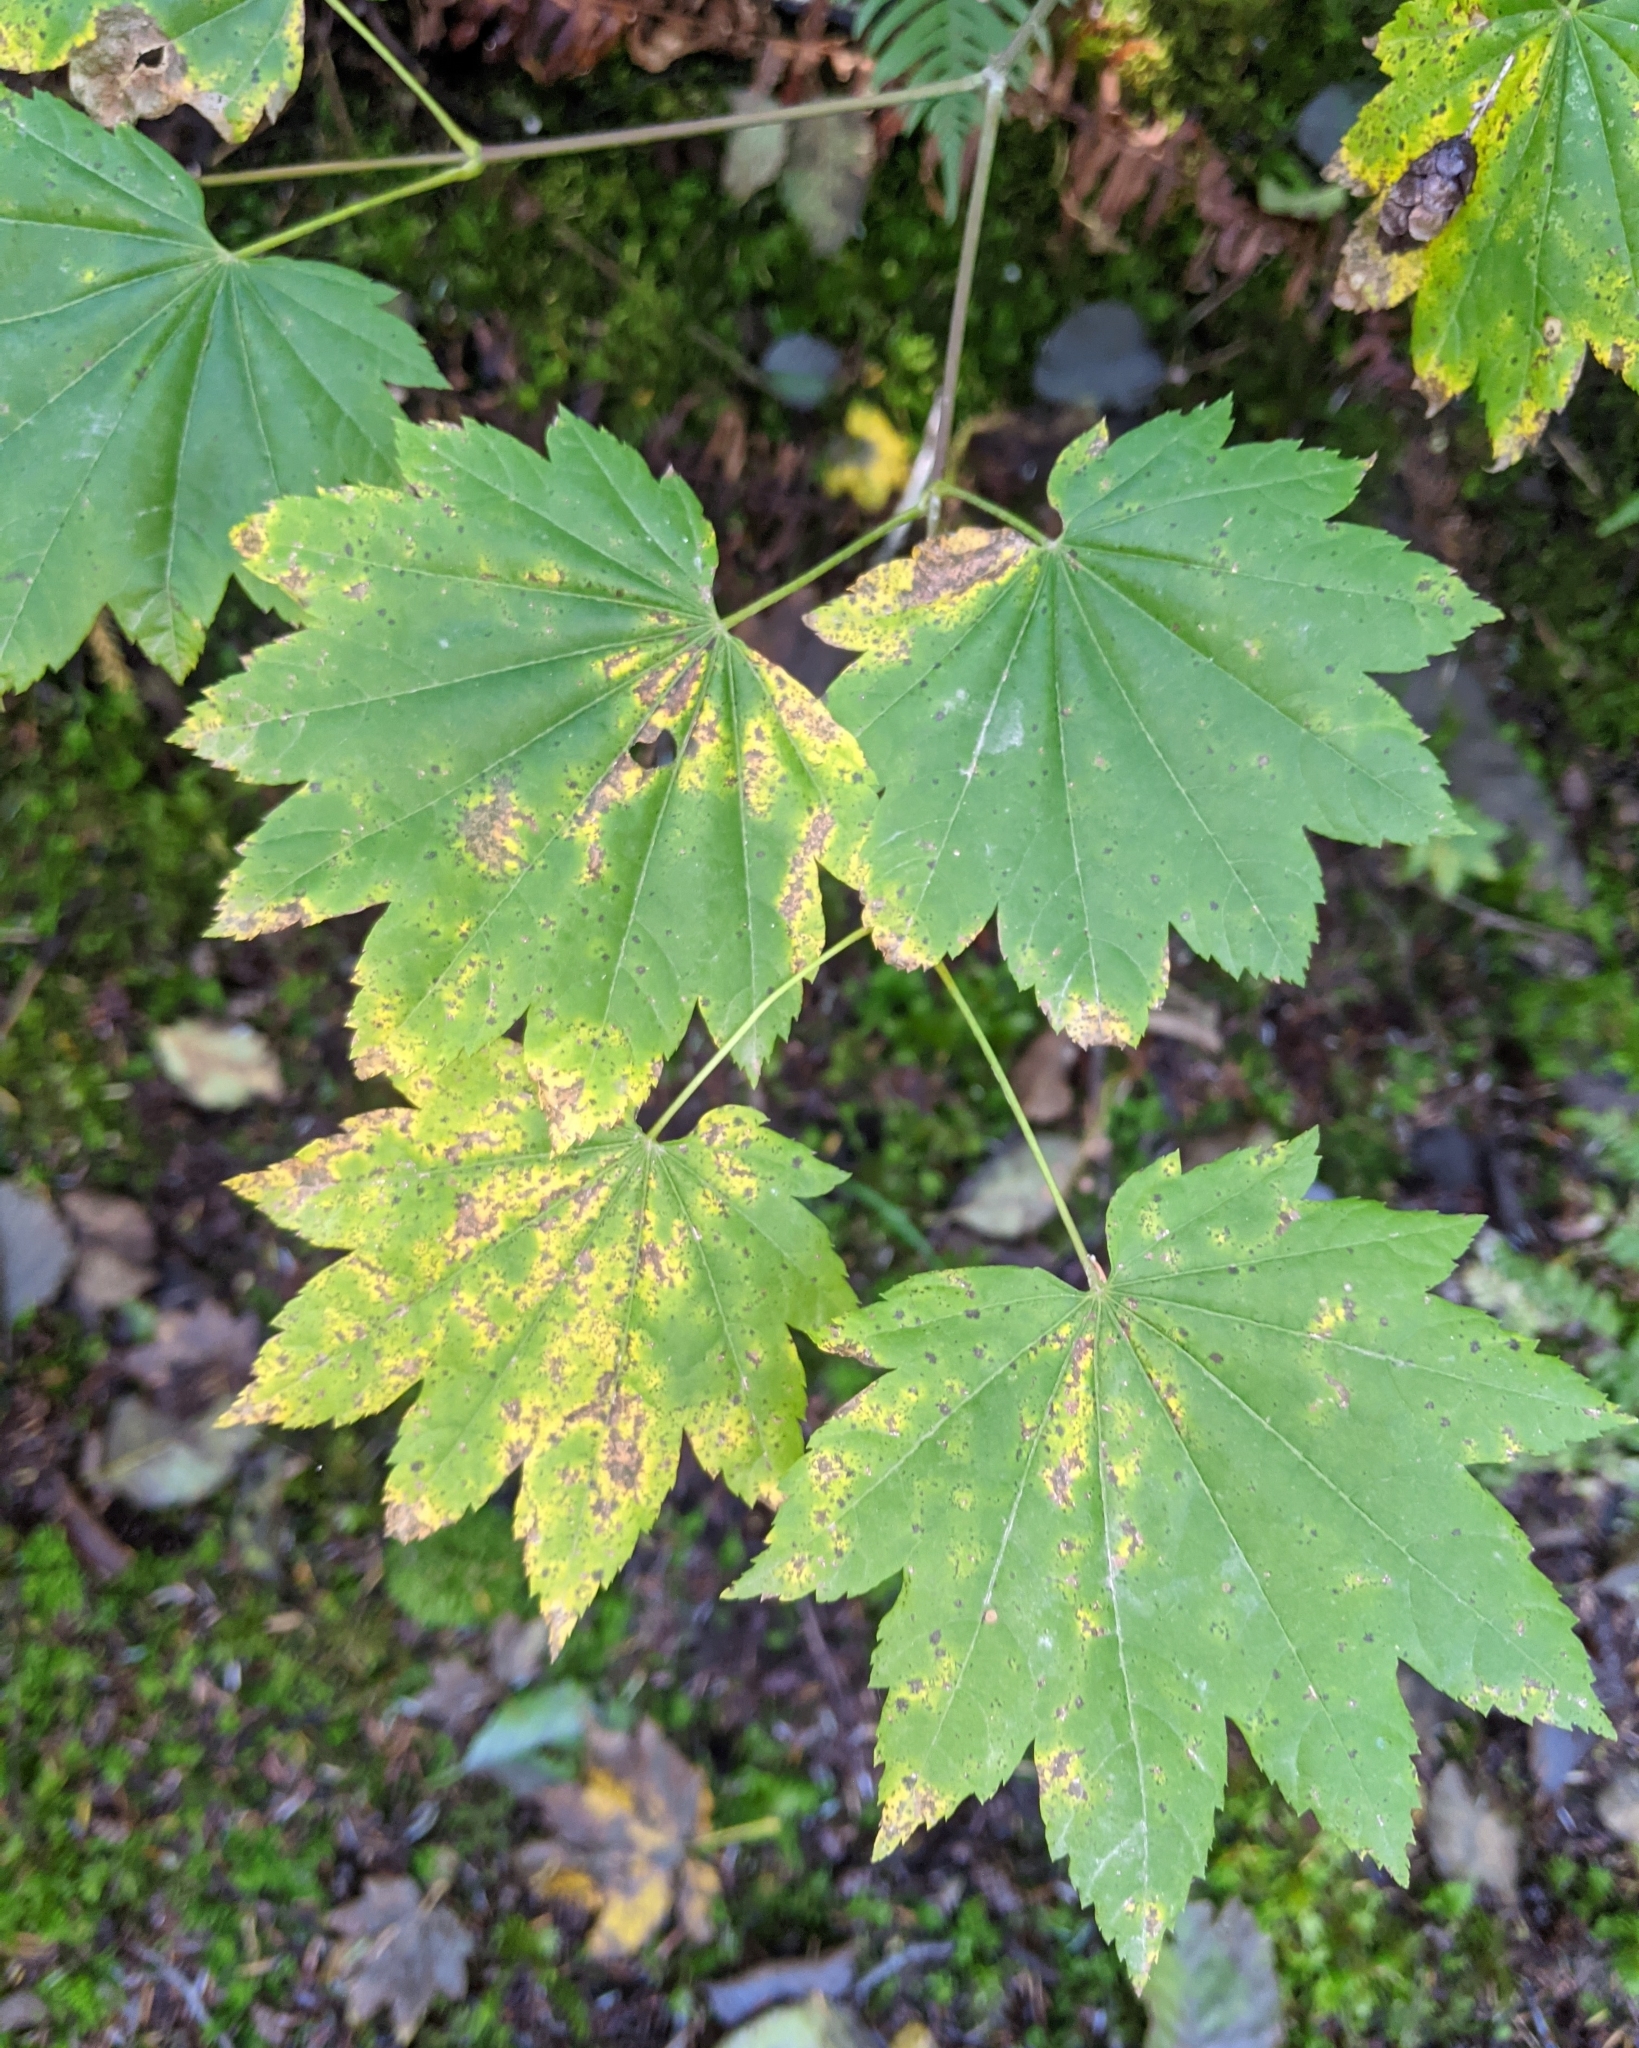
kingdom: Plantae
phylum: Tracheophyta
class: Magnoliopsida
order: Sapindales
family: Sapindaceae
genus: Acer
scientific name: Acer circinatum
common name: Vine maple
